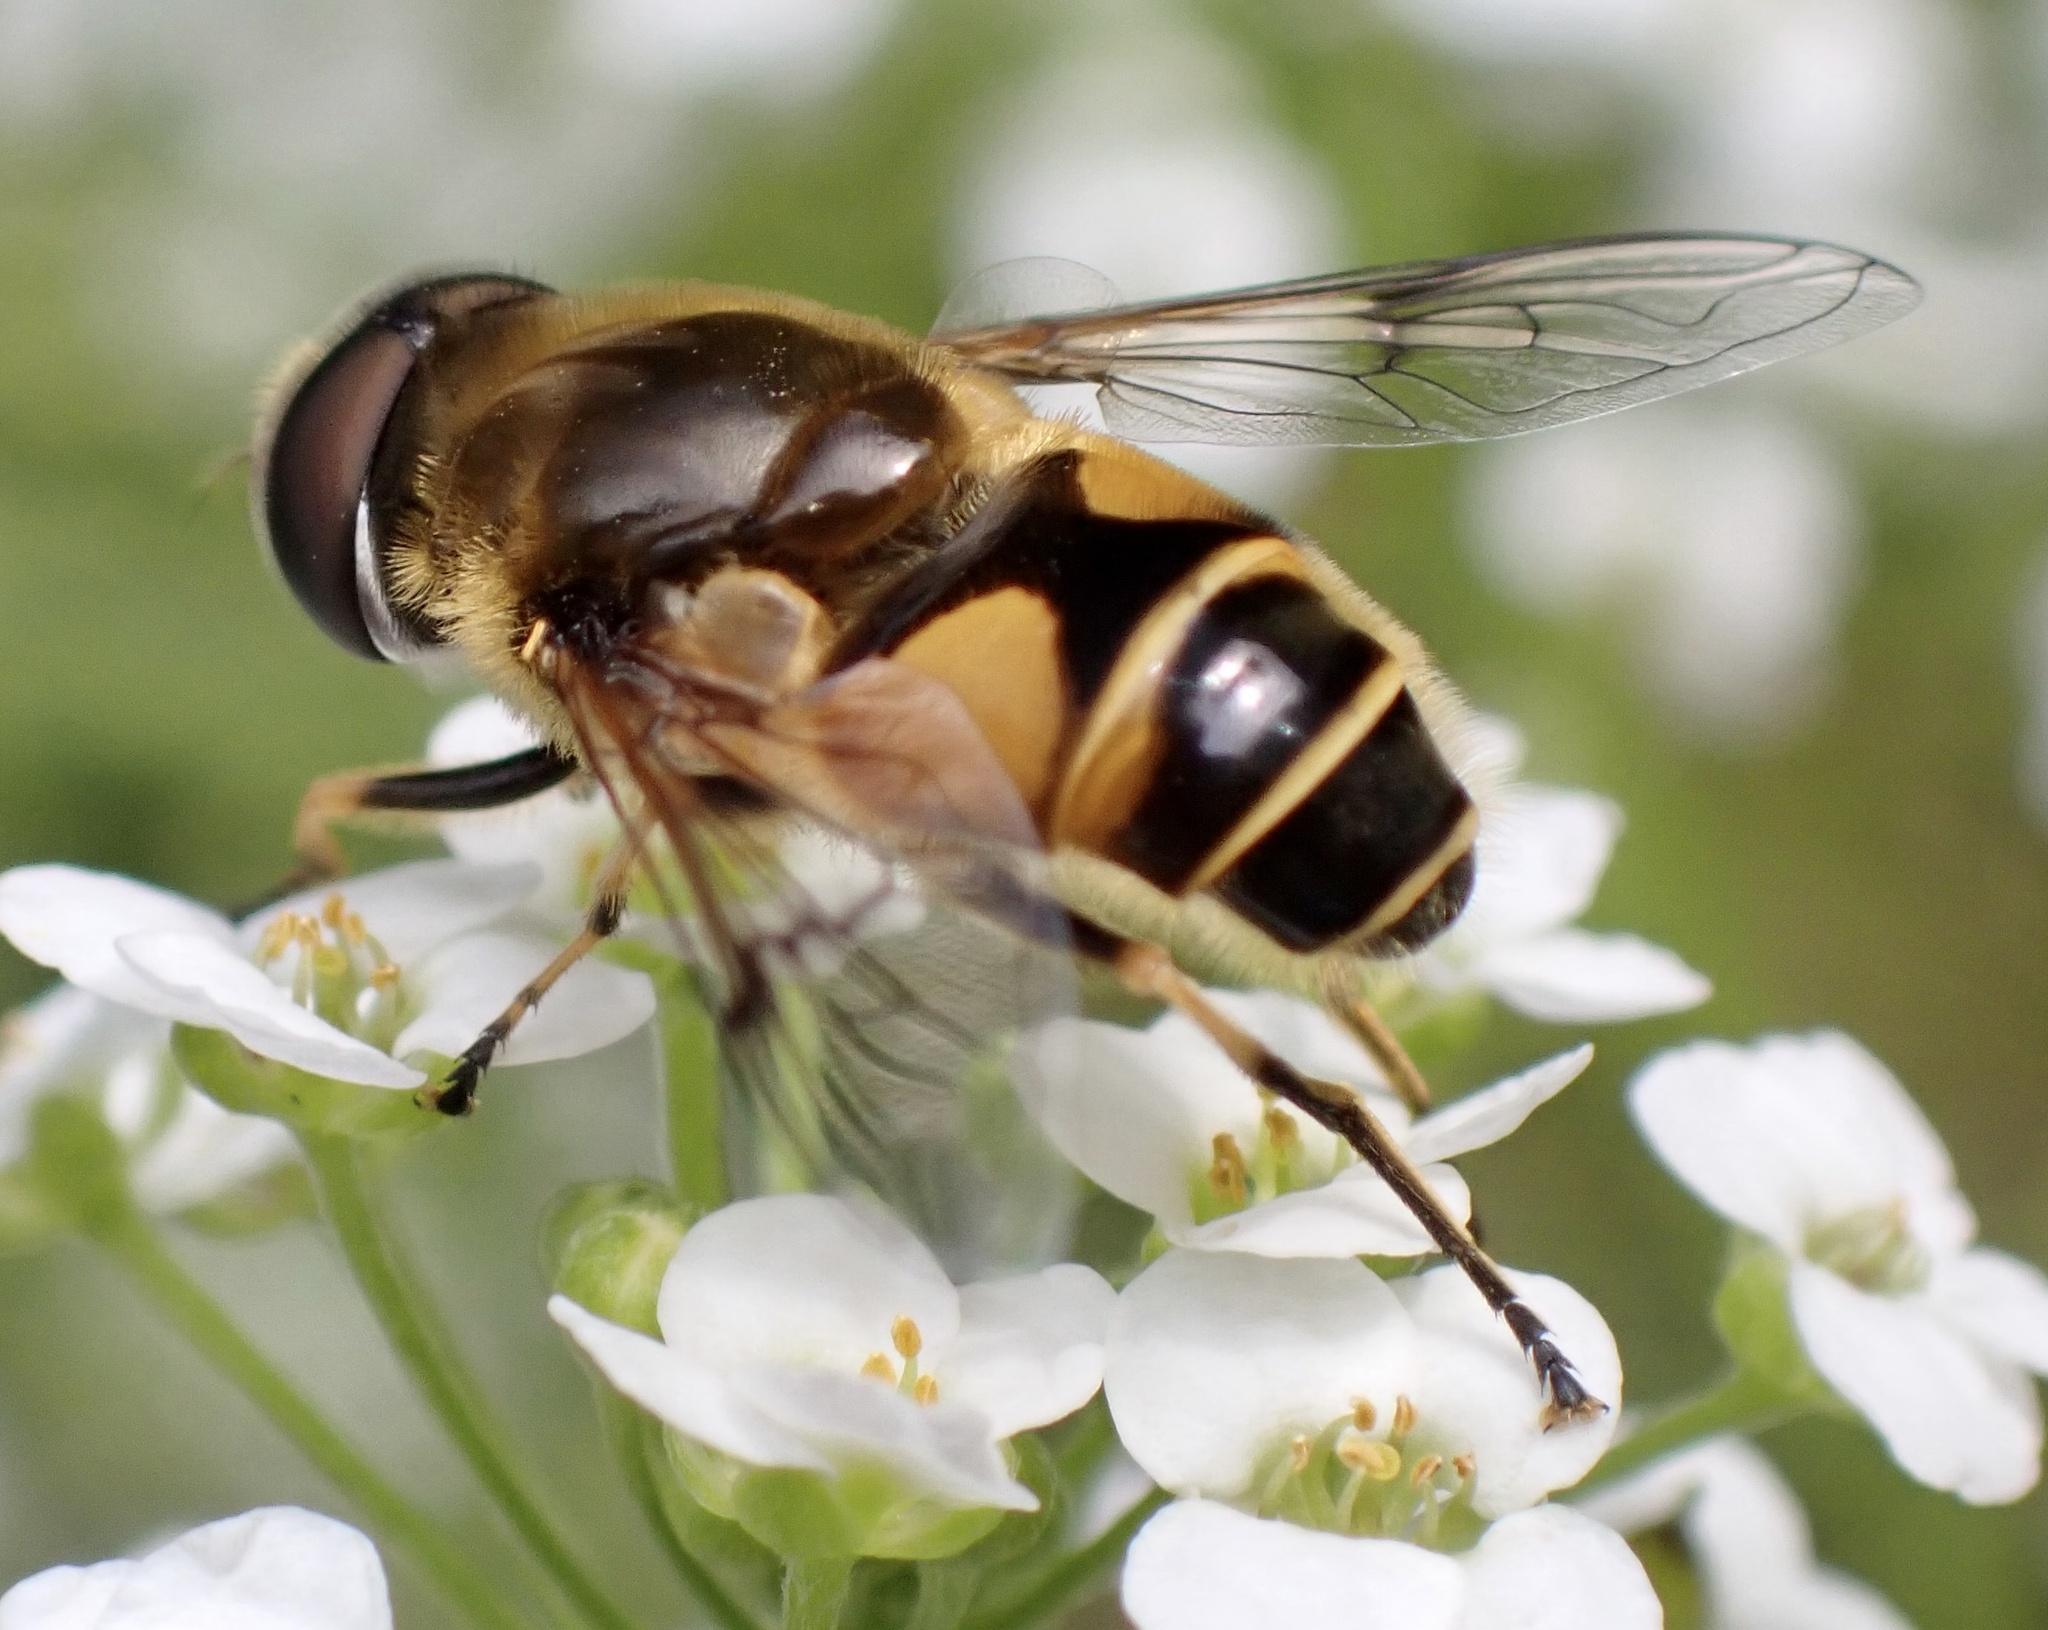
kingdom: Animalia
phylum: Arthropoda
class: Insecta
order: Diptera
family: Syrphidae
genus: Cheilosia
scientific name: Cheilosia morio
